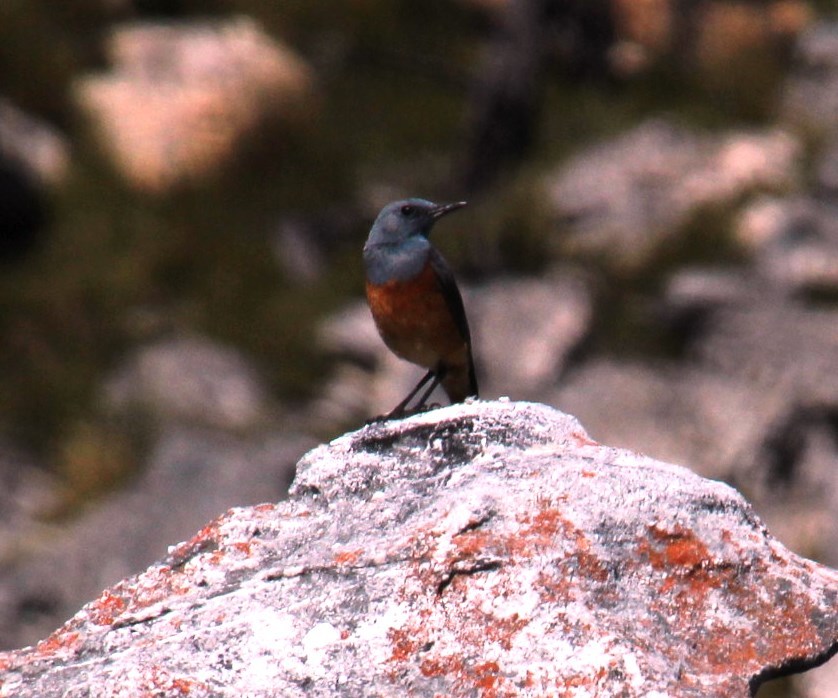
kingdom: Animalia
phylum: Chordata
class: Aves
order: Passeriformes
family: Muscicapidae
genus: Monticola
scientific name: Monticola explorator
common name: Sentinel rock thrush
